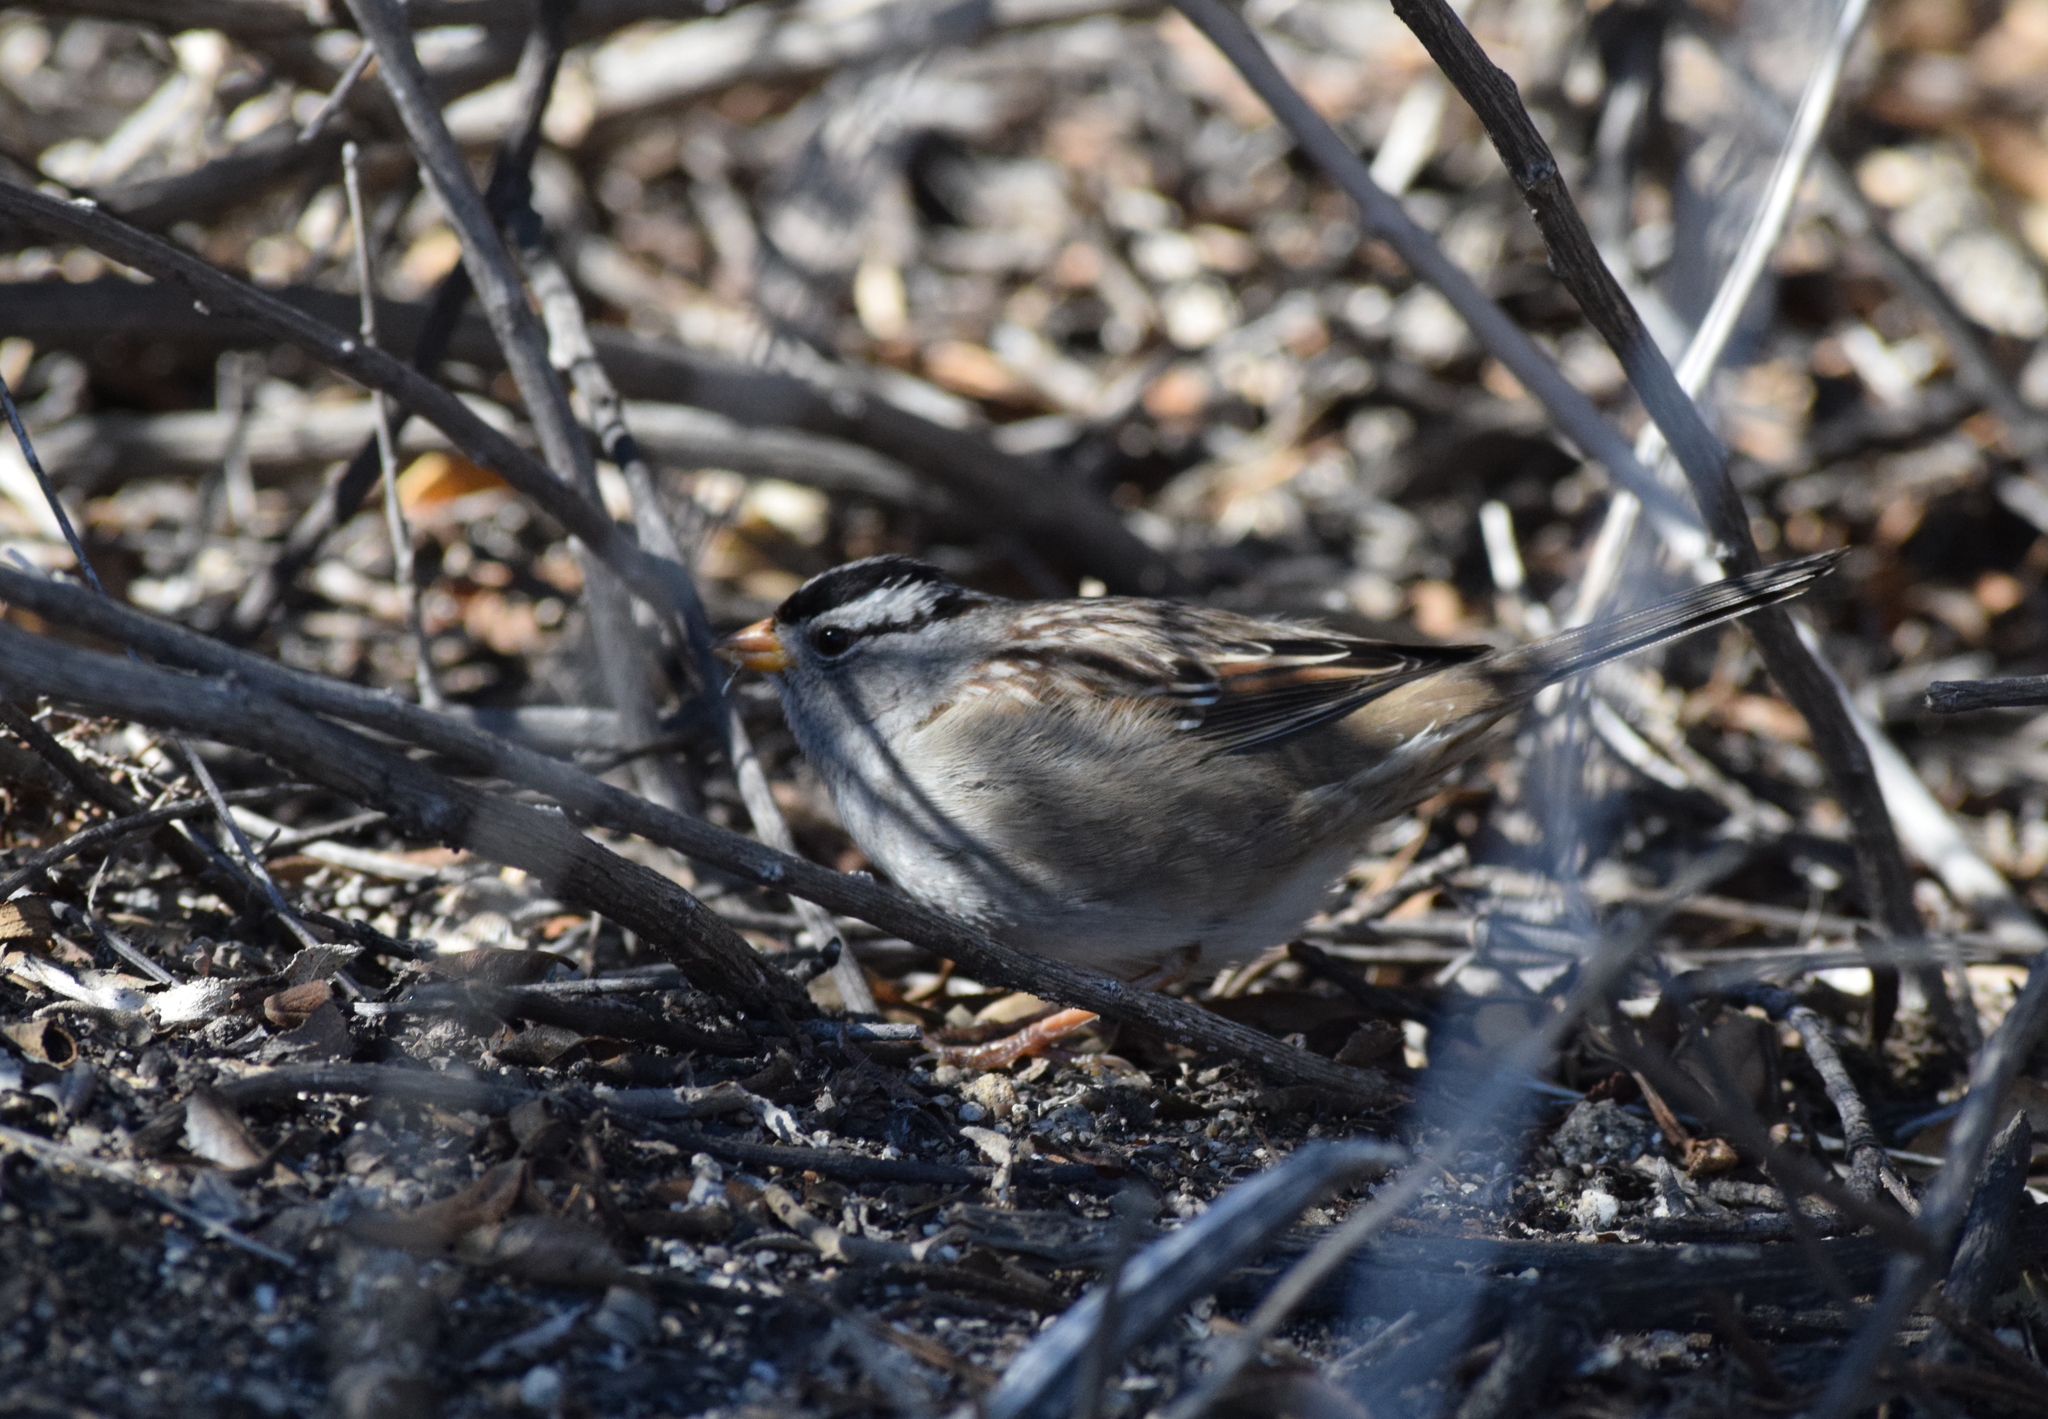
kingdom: Animalia
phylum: Chordata
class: Aves
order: Passeriformes
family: Passerellidae
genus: Zonotrichia
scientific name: Zonotrichia leucophrys
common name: White-crowned sparrow
